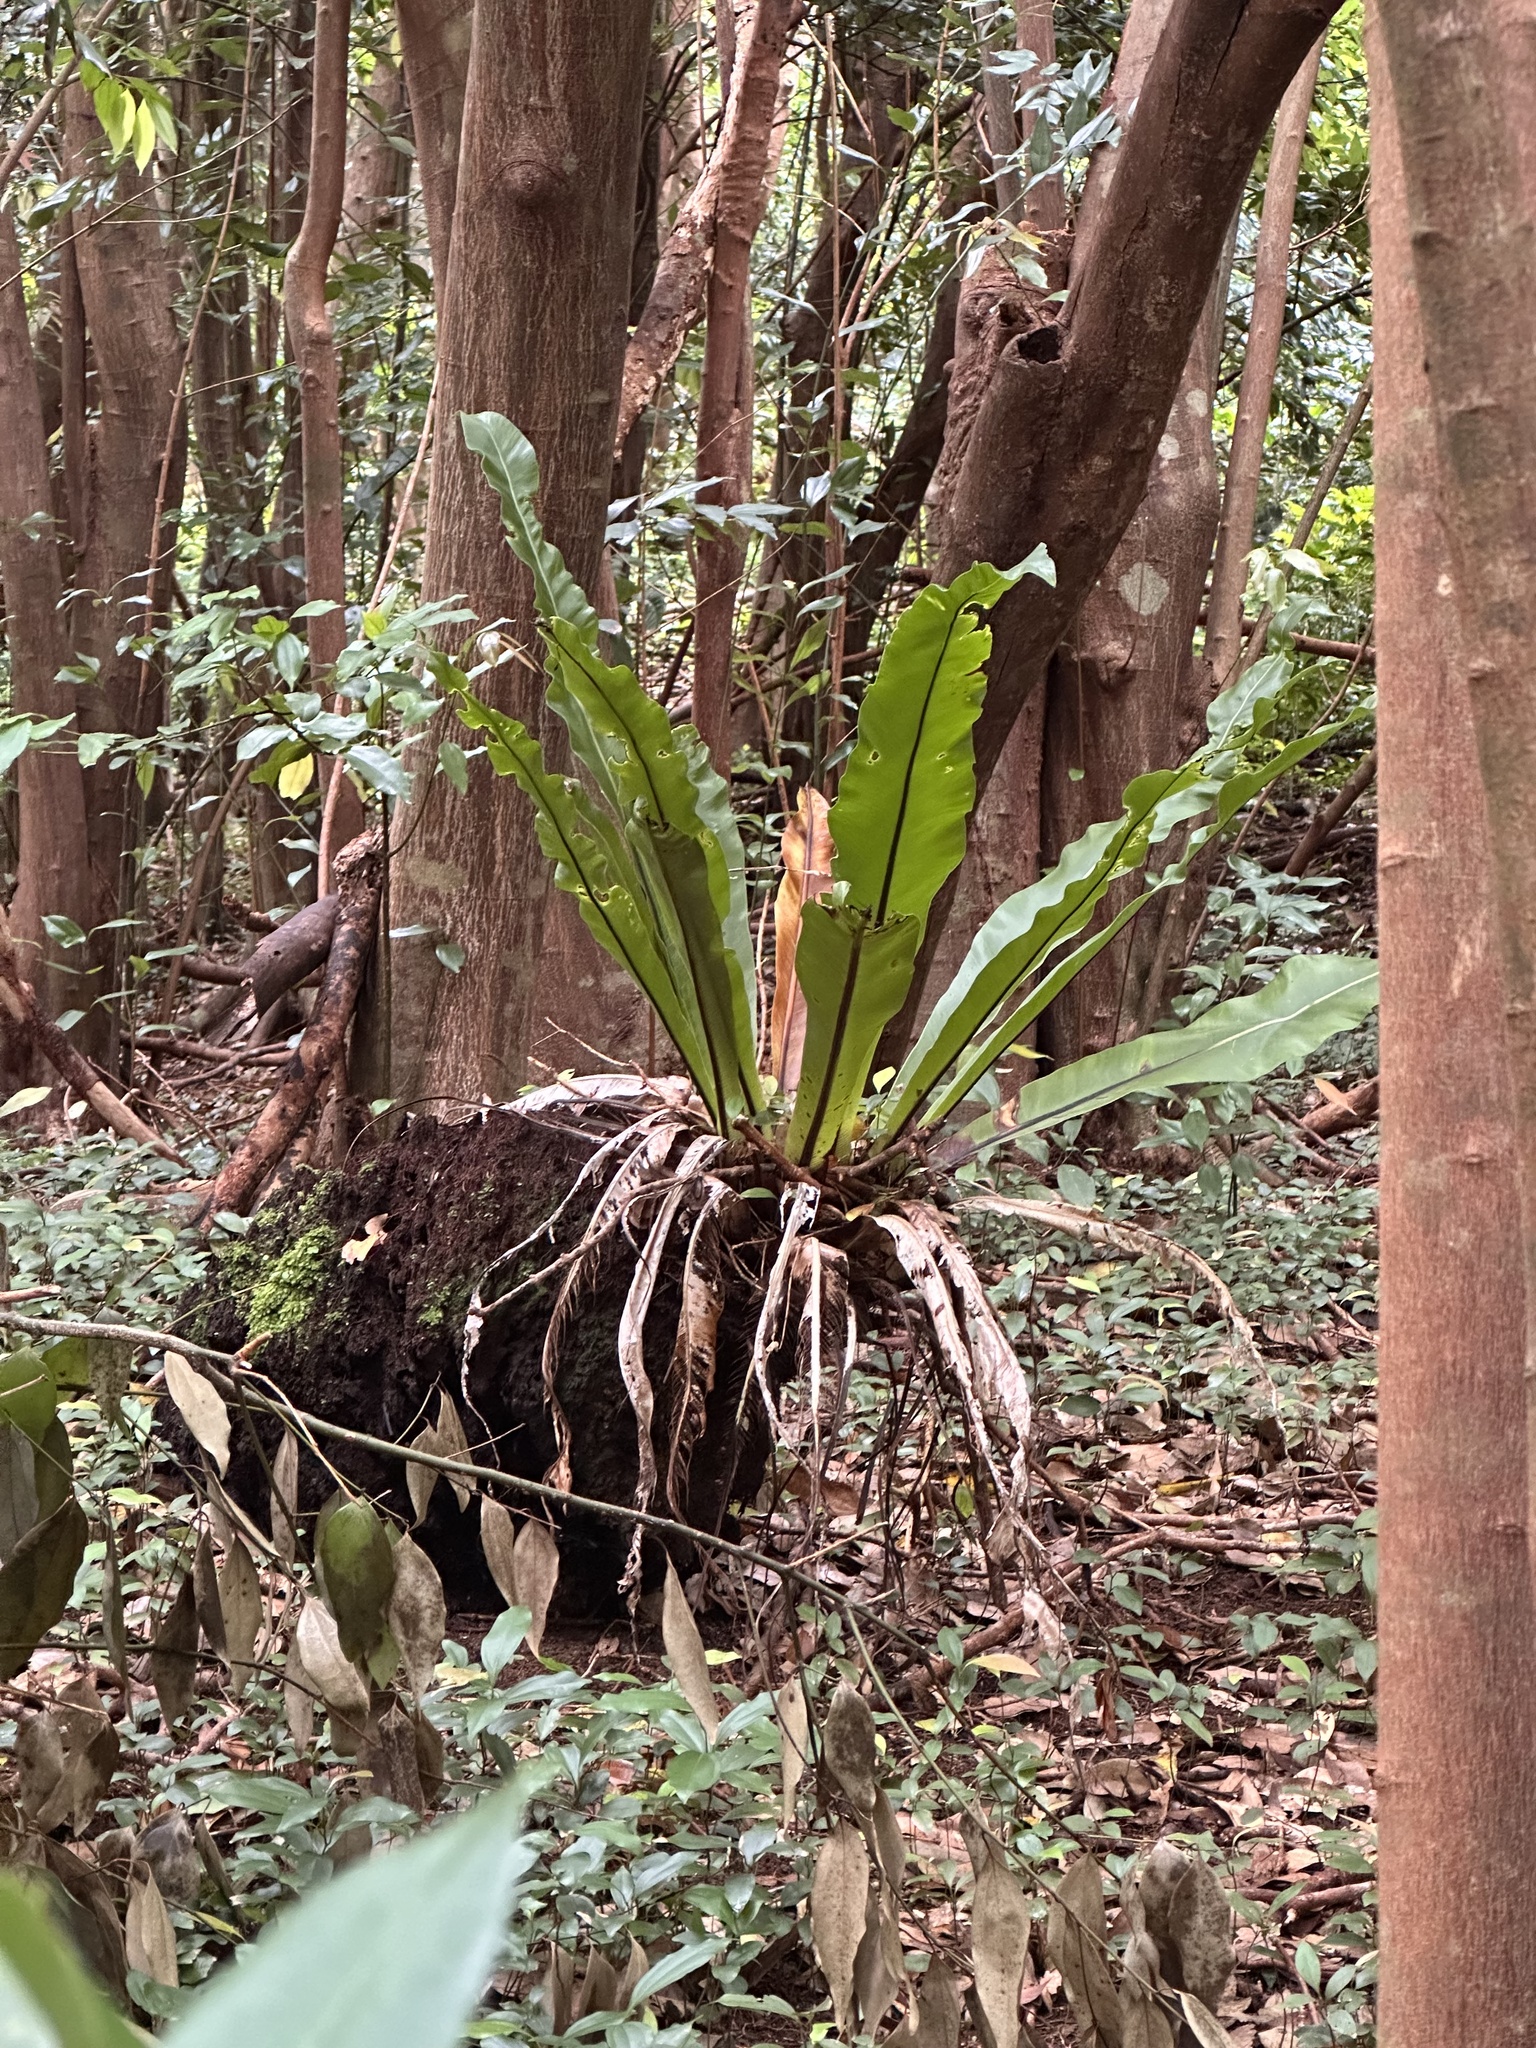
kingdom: Plantae
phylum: Tracheophyta
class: Polypodiopsida
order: Polypodiales
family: Aspleniaceae
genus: Asplenium
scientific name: Asplenium nidus
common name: Bird's-nest fern
